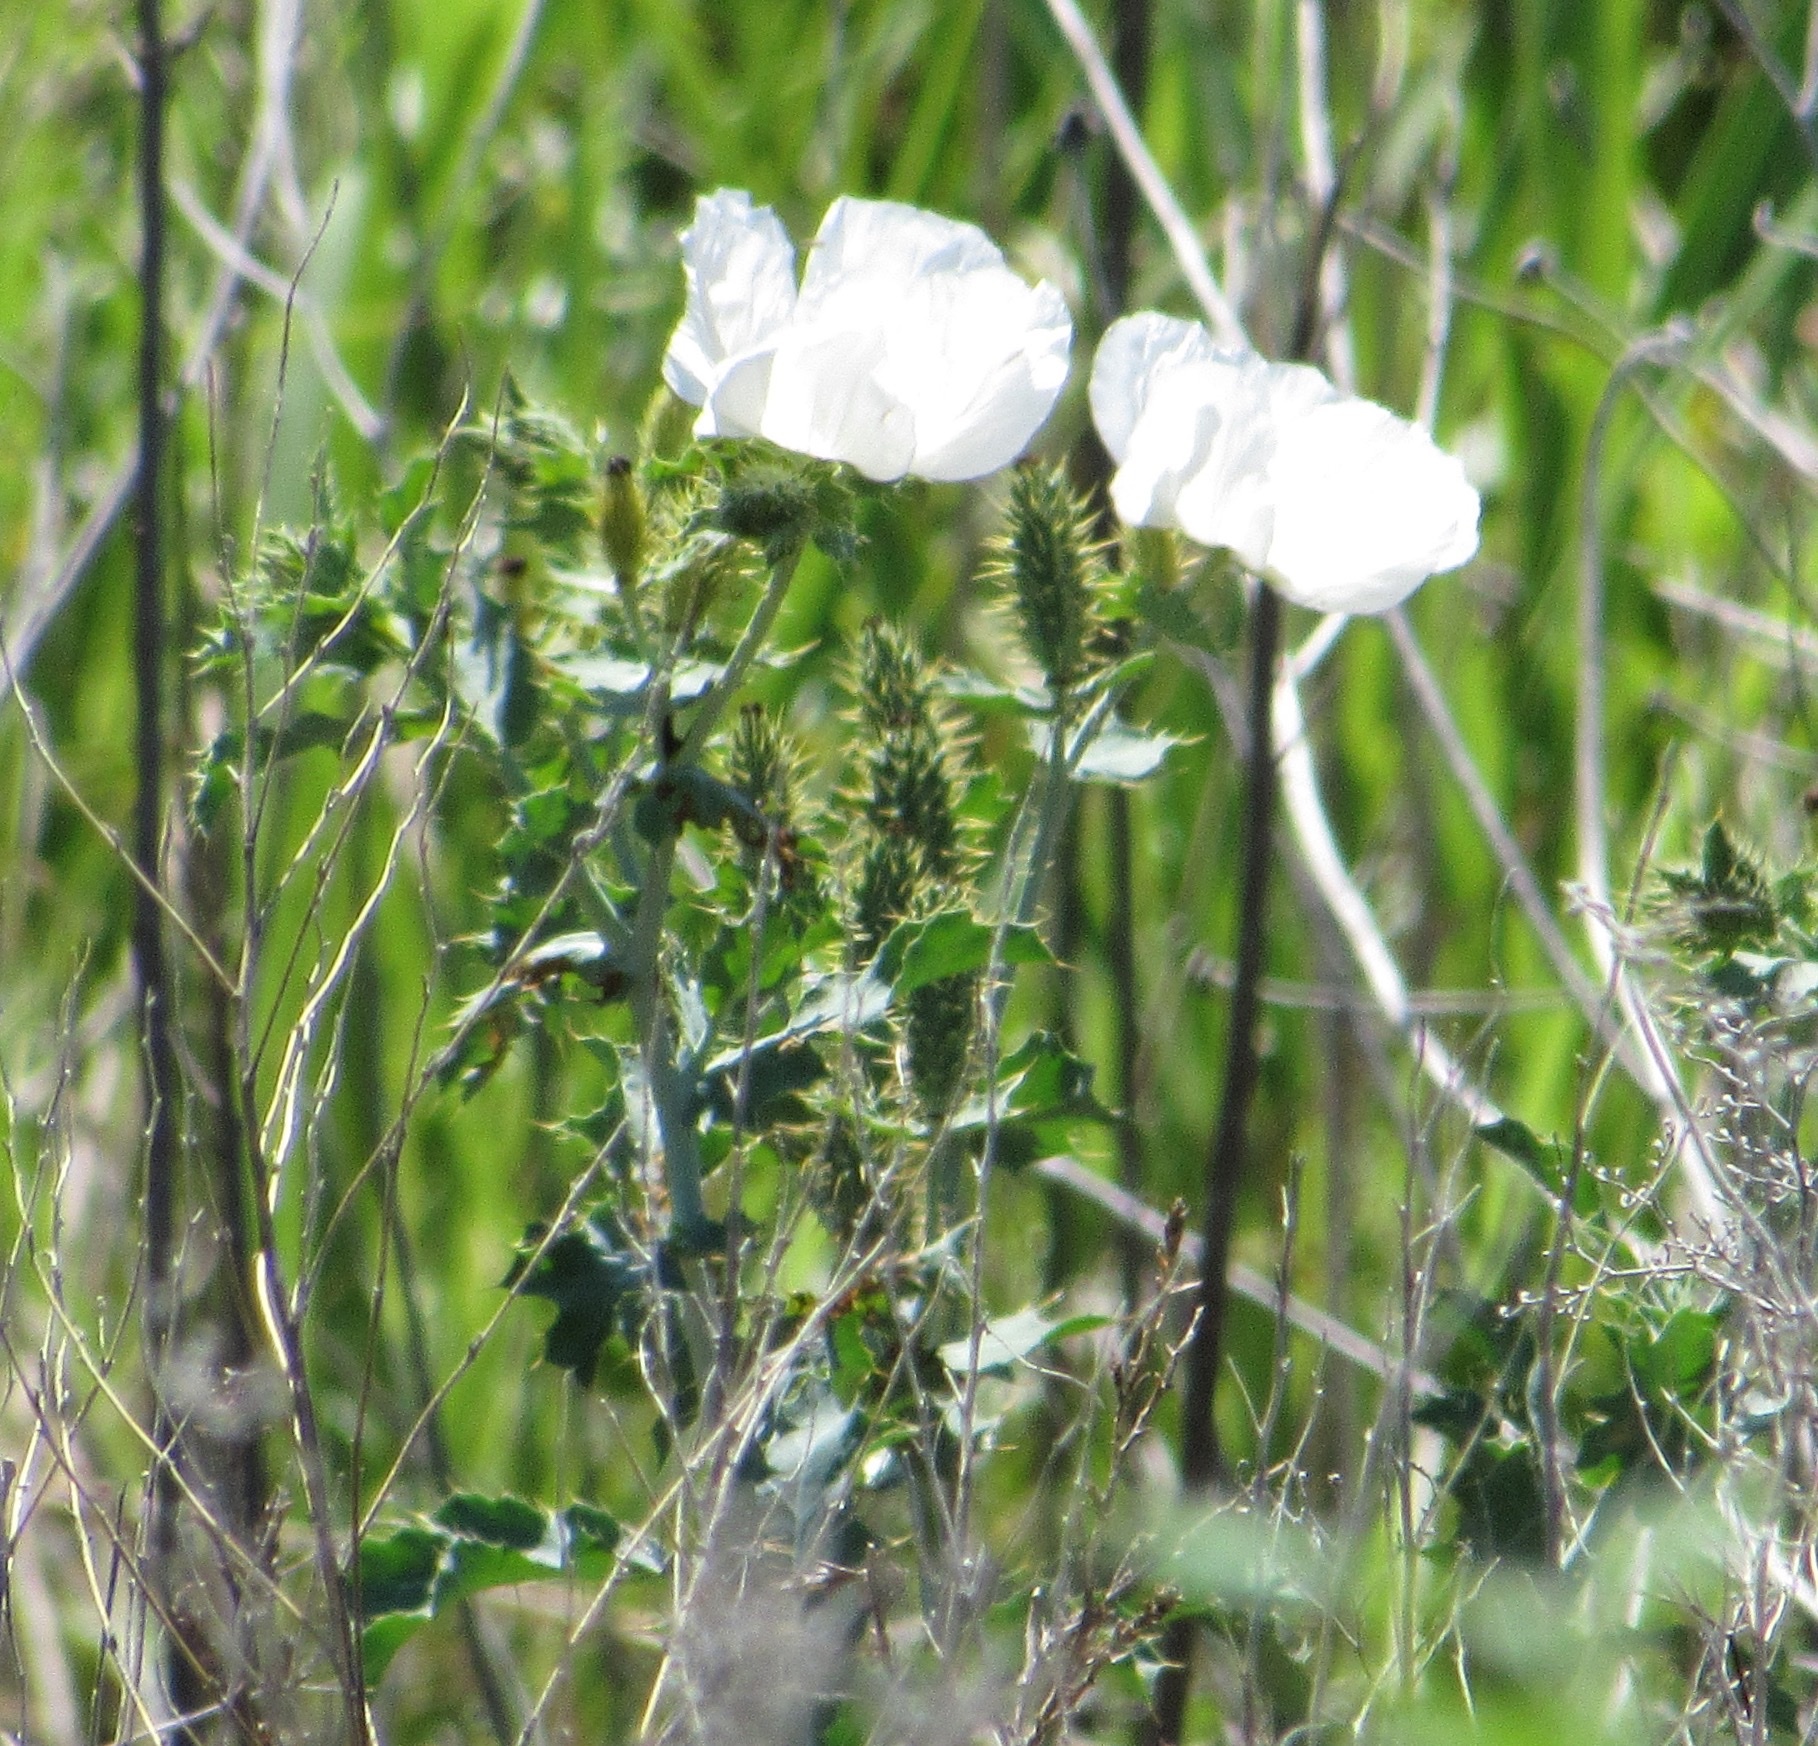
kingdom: Plantae
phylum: Tracheophyta
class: Magnoliopsida
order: Ranunculales
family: Papaveraceae
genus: Argemone
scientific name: Argemone polyanthemos
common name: Plains prickly-poppy
